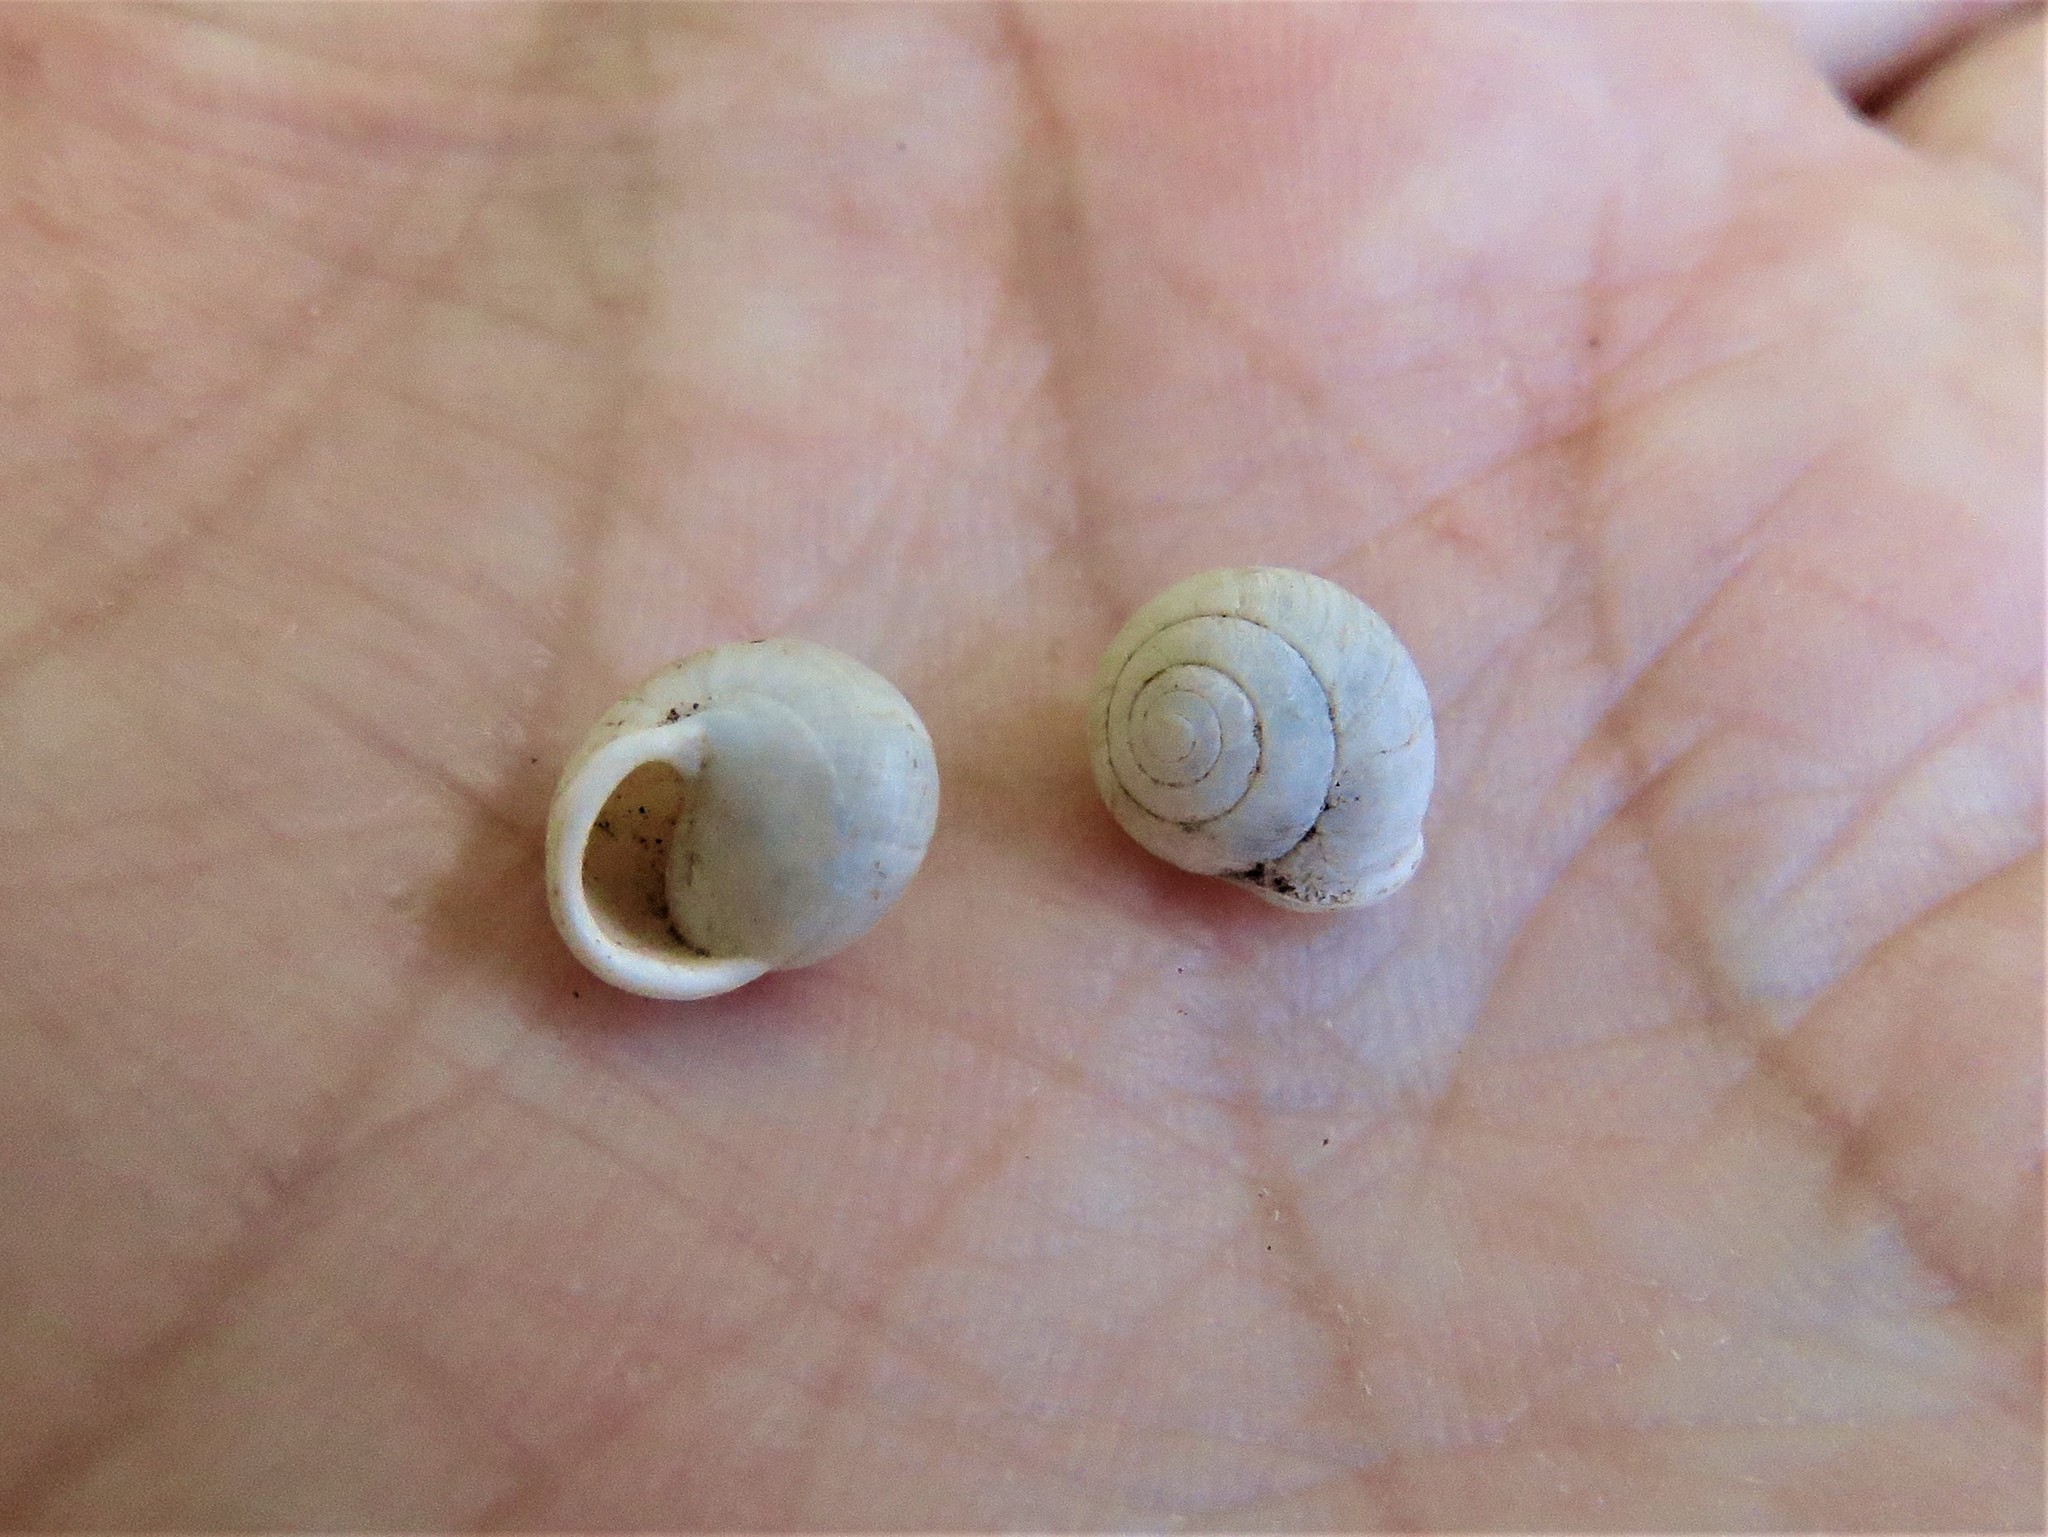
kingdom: Animalia
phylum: Mollusca
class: Gastropoda
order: Cycloneritida
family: Helicinidae
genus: Helicina
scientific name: Helicina orbiculata
